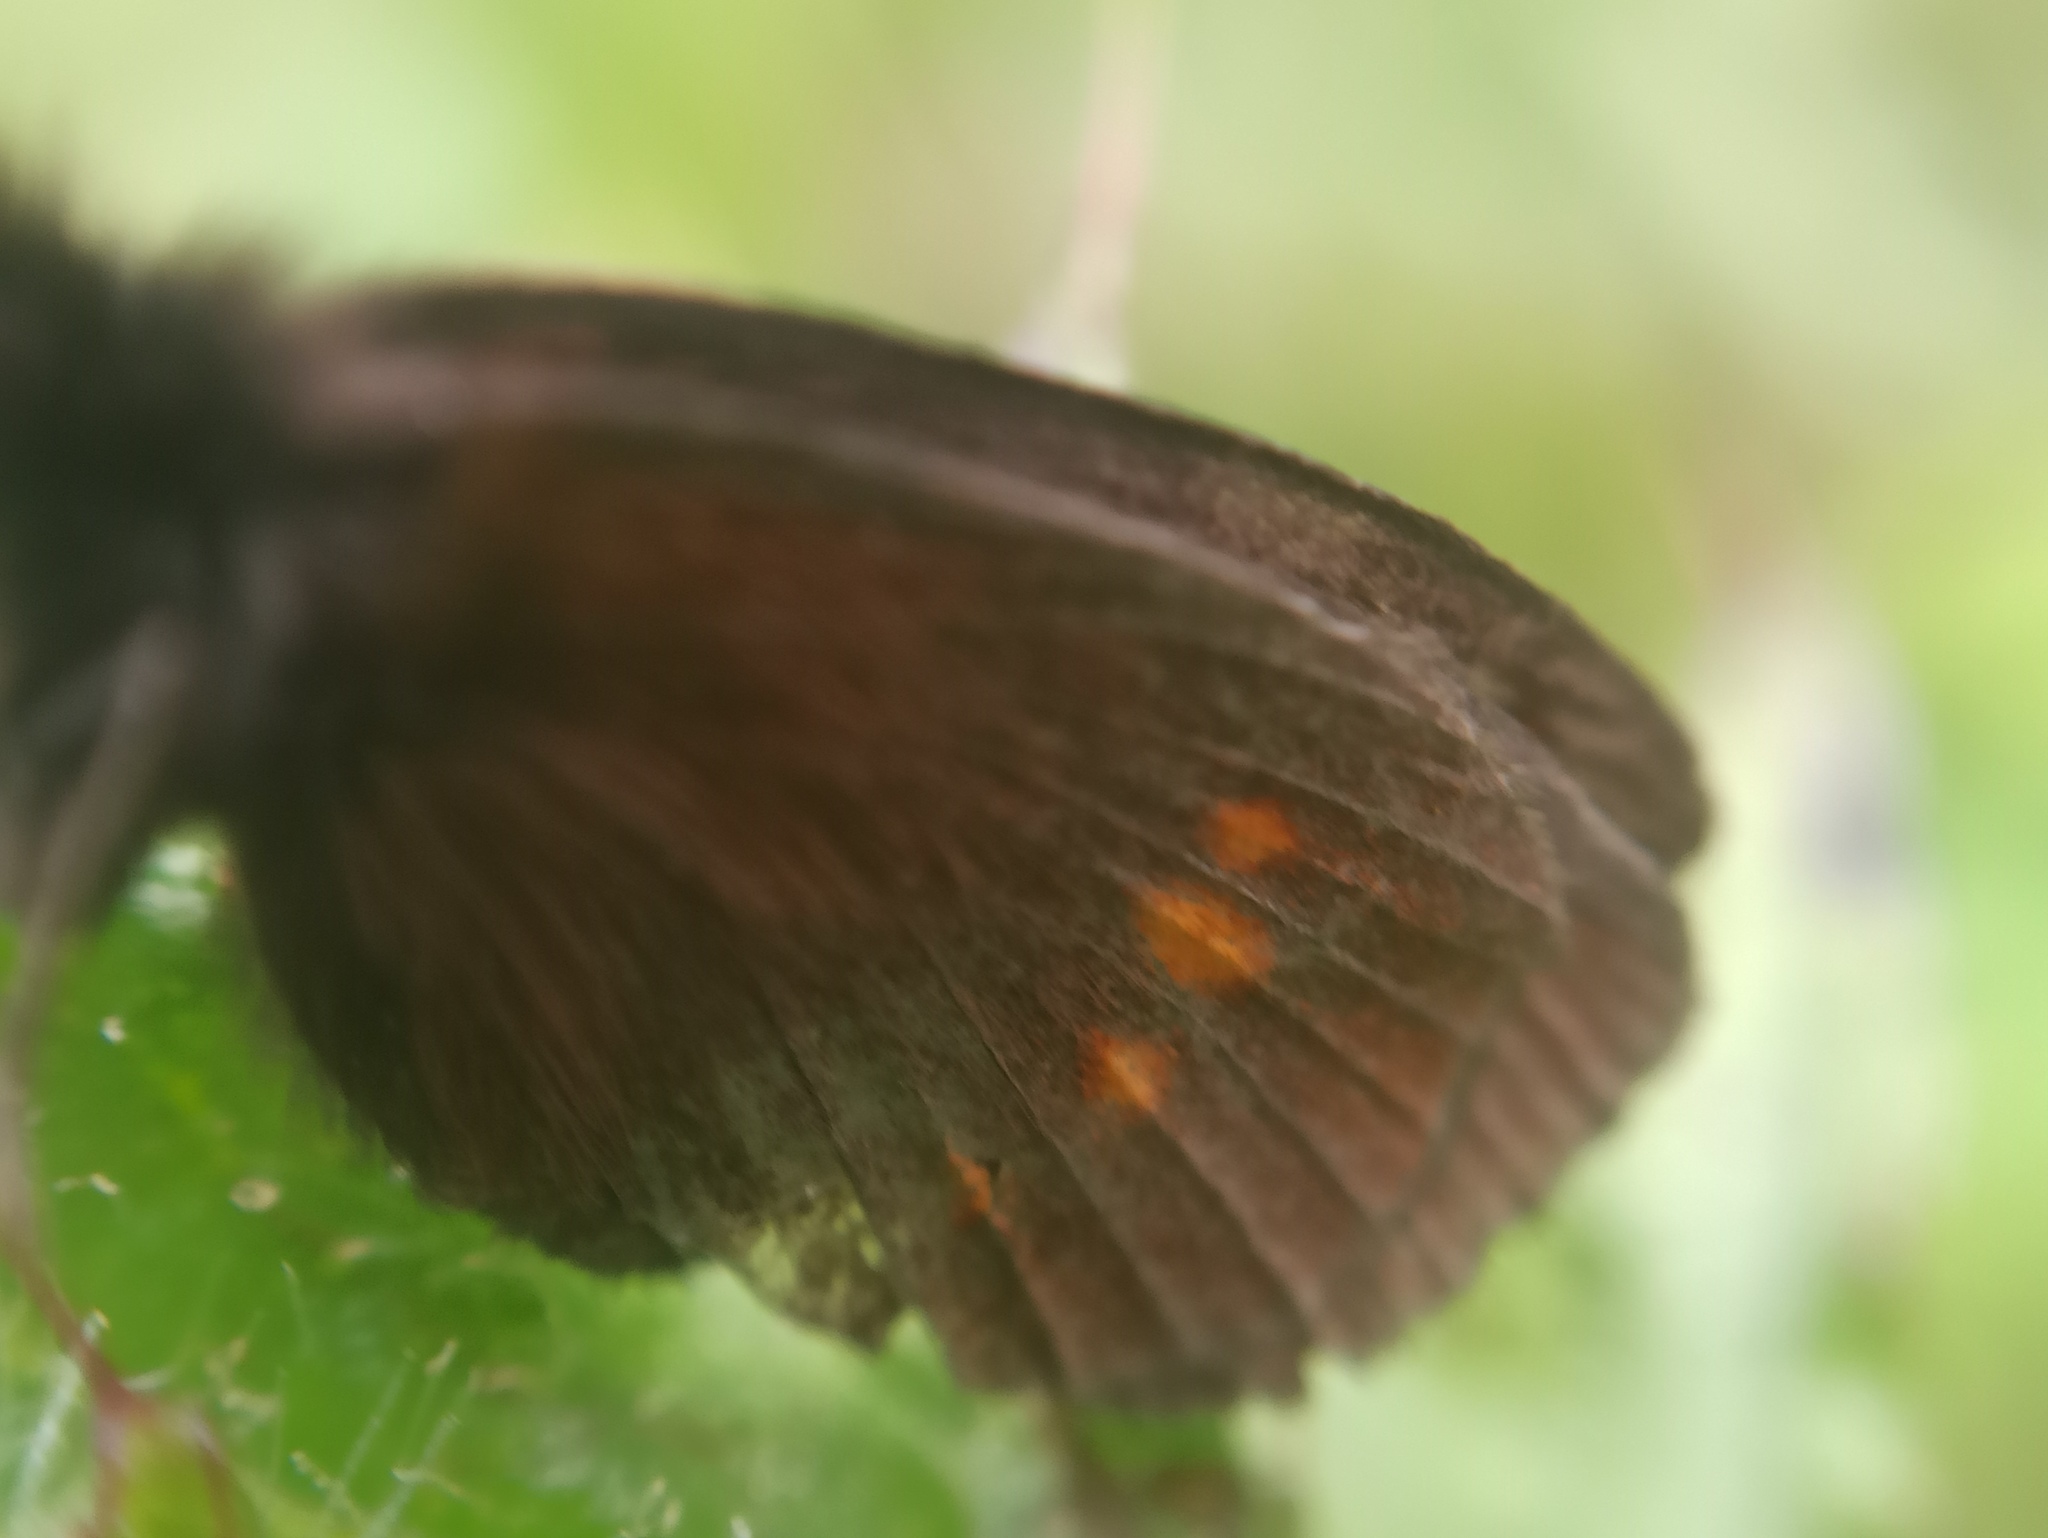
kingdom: Animalia
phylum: Arthropoda
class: Insecta
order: Lepidoptera
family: Nymphalidae
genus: Erebia
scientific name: Erebia pharte
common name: Blind ringlet
